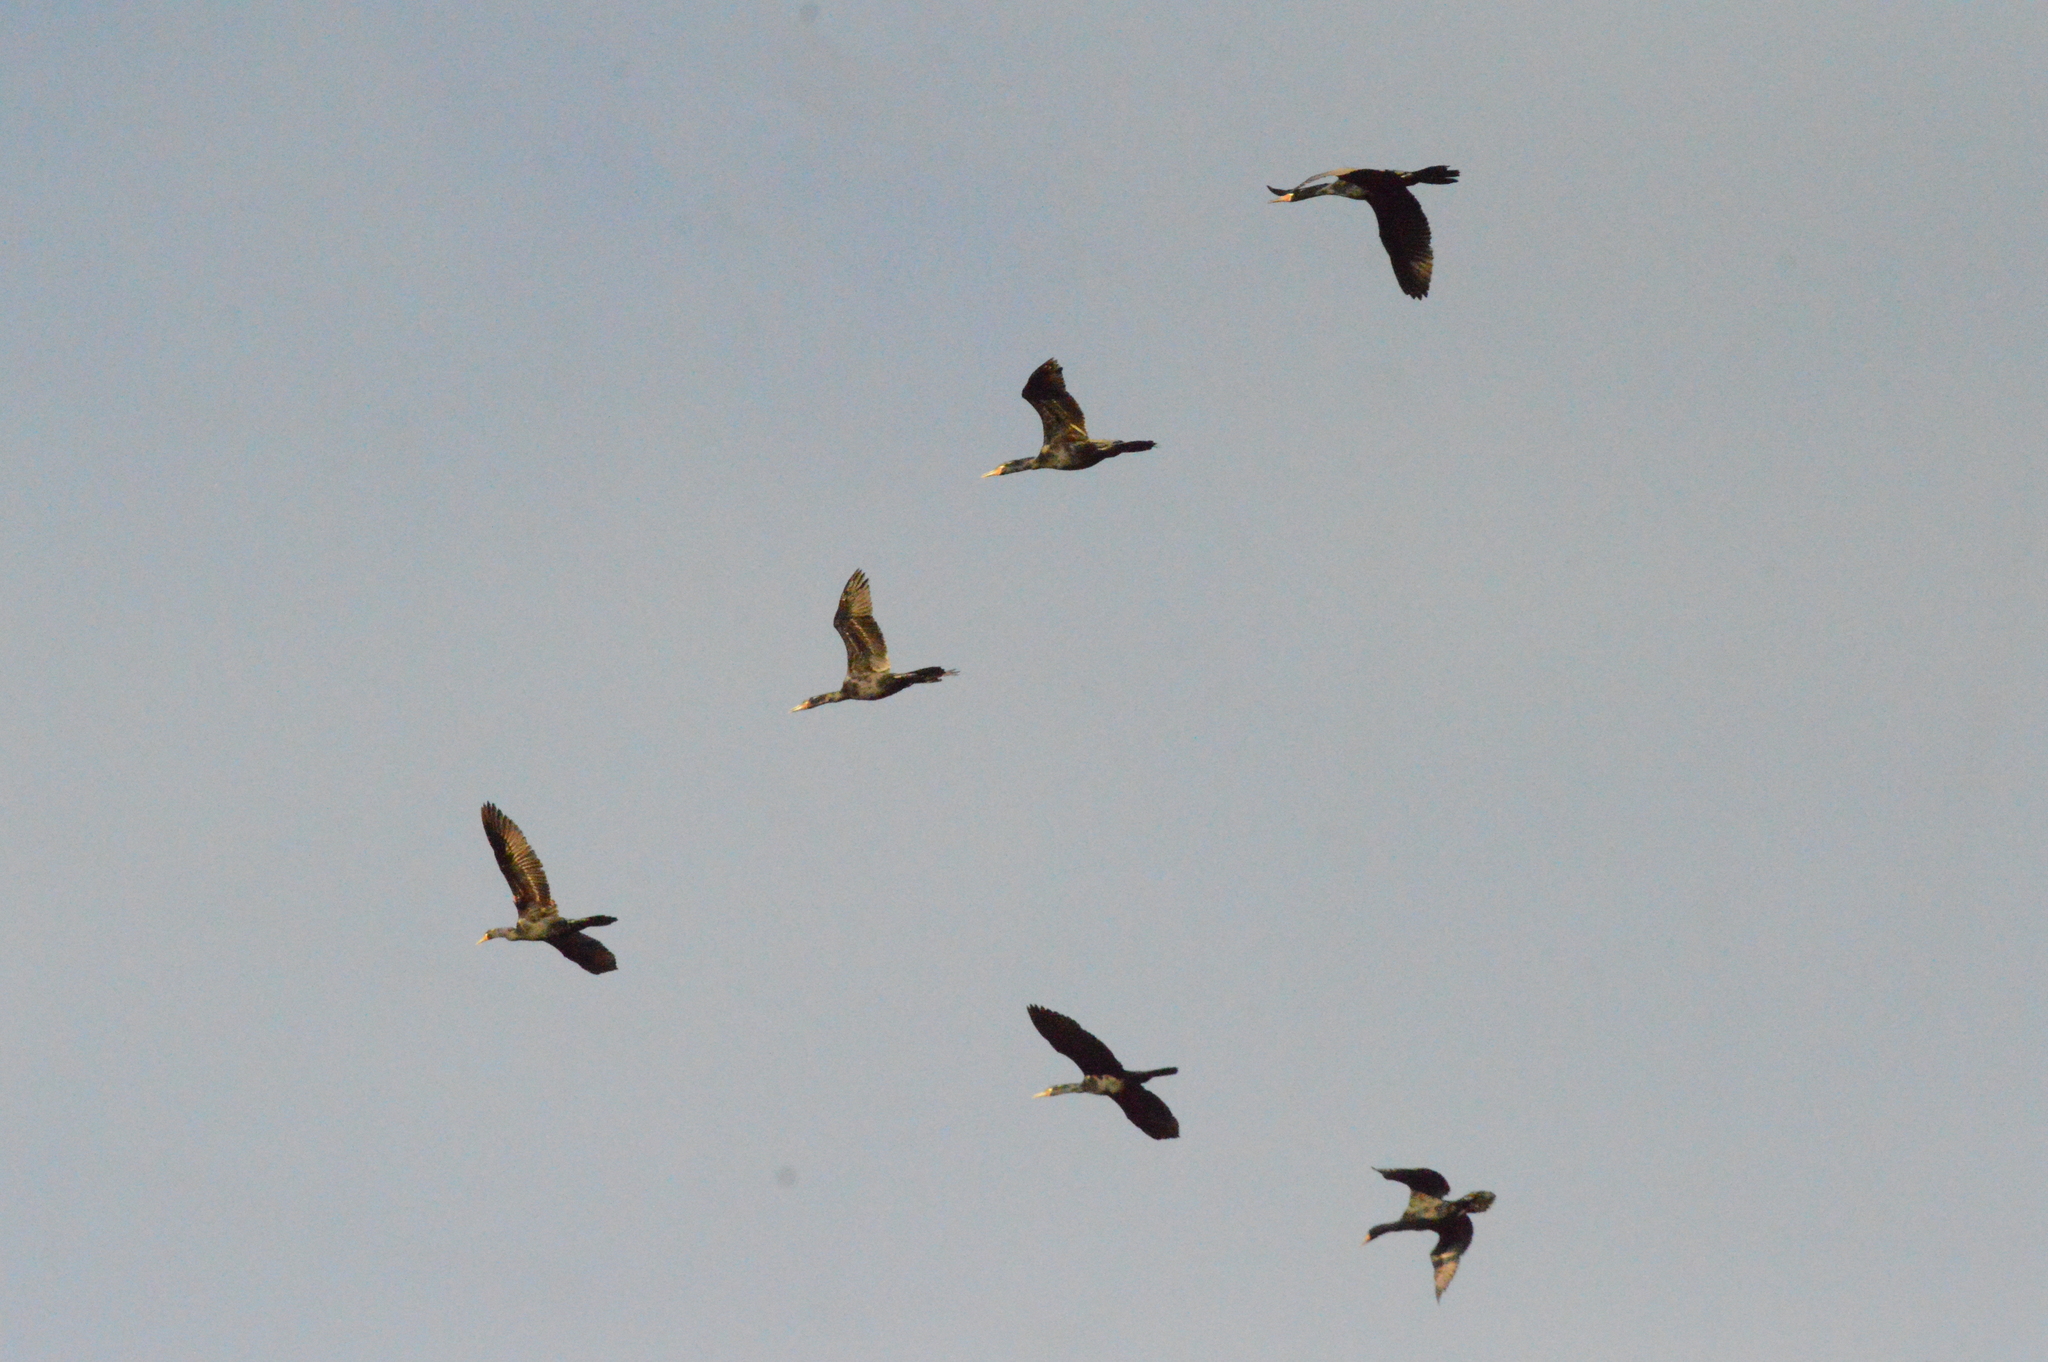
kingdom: Animalia
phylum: Chordata
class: Aves
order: Suliformes
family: Phalacrocoracidae
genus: Phalacrocorax
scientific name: Phalacrocorax brasilianus
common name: Neotropic cormorant
